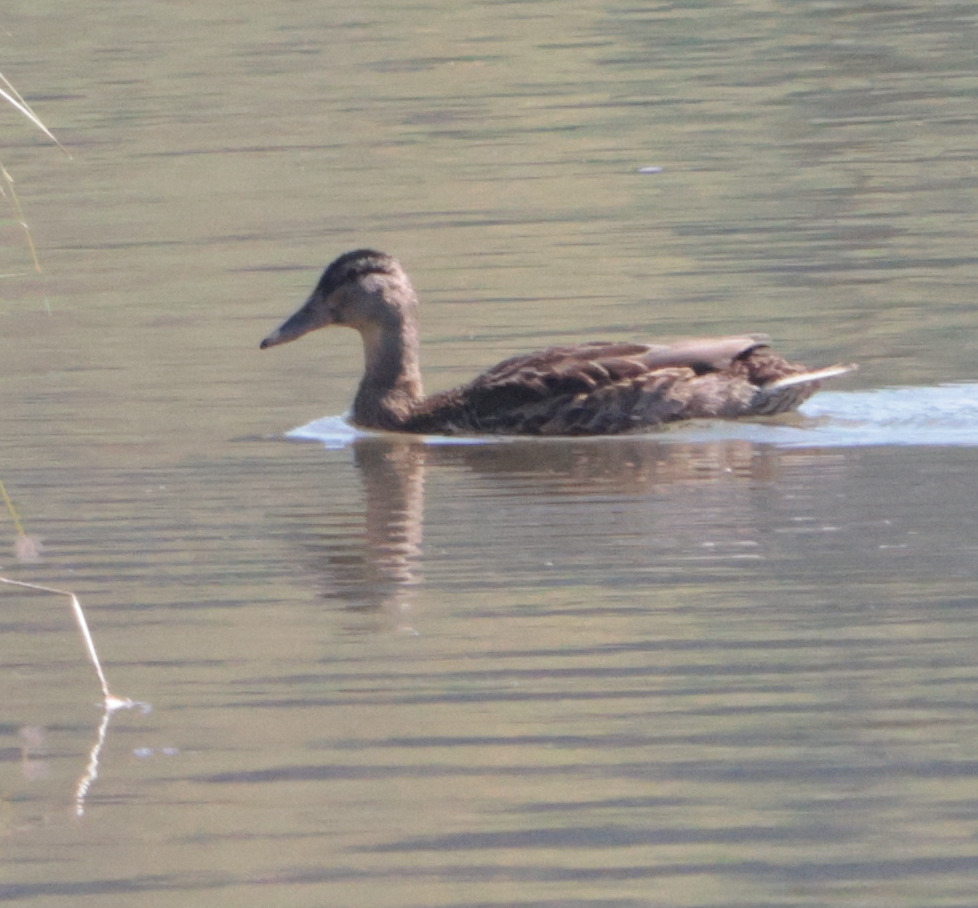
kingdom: Animalia
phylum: Chordata
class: Aves
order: Anseriformes
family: Anatidae
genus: Anas
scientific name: Anas platyrhynchos
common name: Mallard
